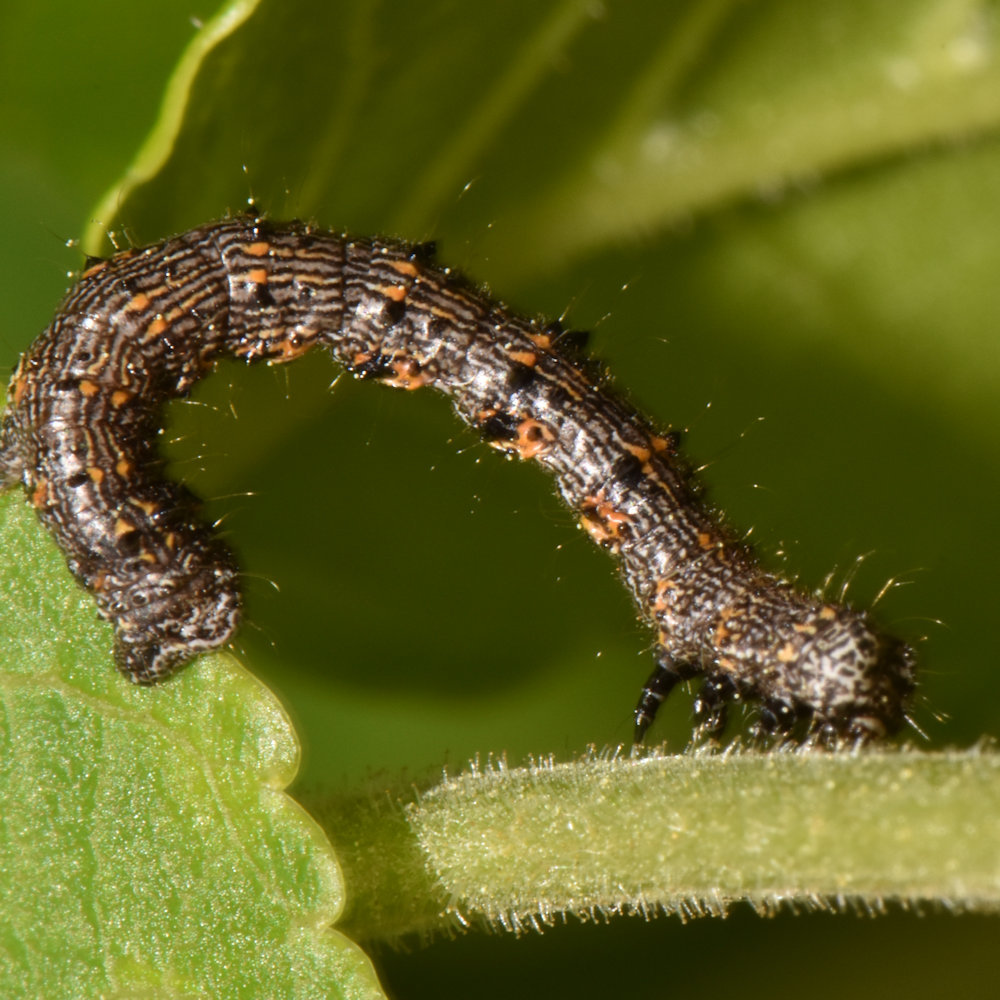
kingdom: Animalia
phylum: Arthropoda
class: Insecta
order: Lepidoptera
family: Geometridae
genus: Phigalia
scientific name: Phigalia titea
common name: Spiny looper
